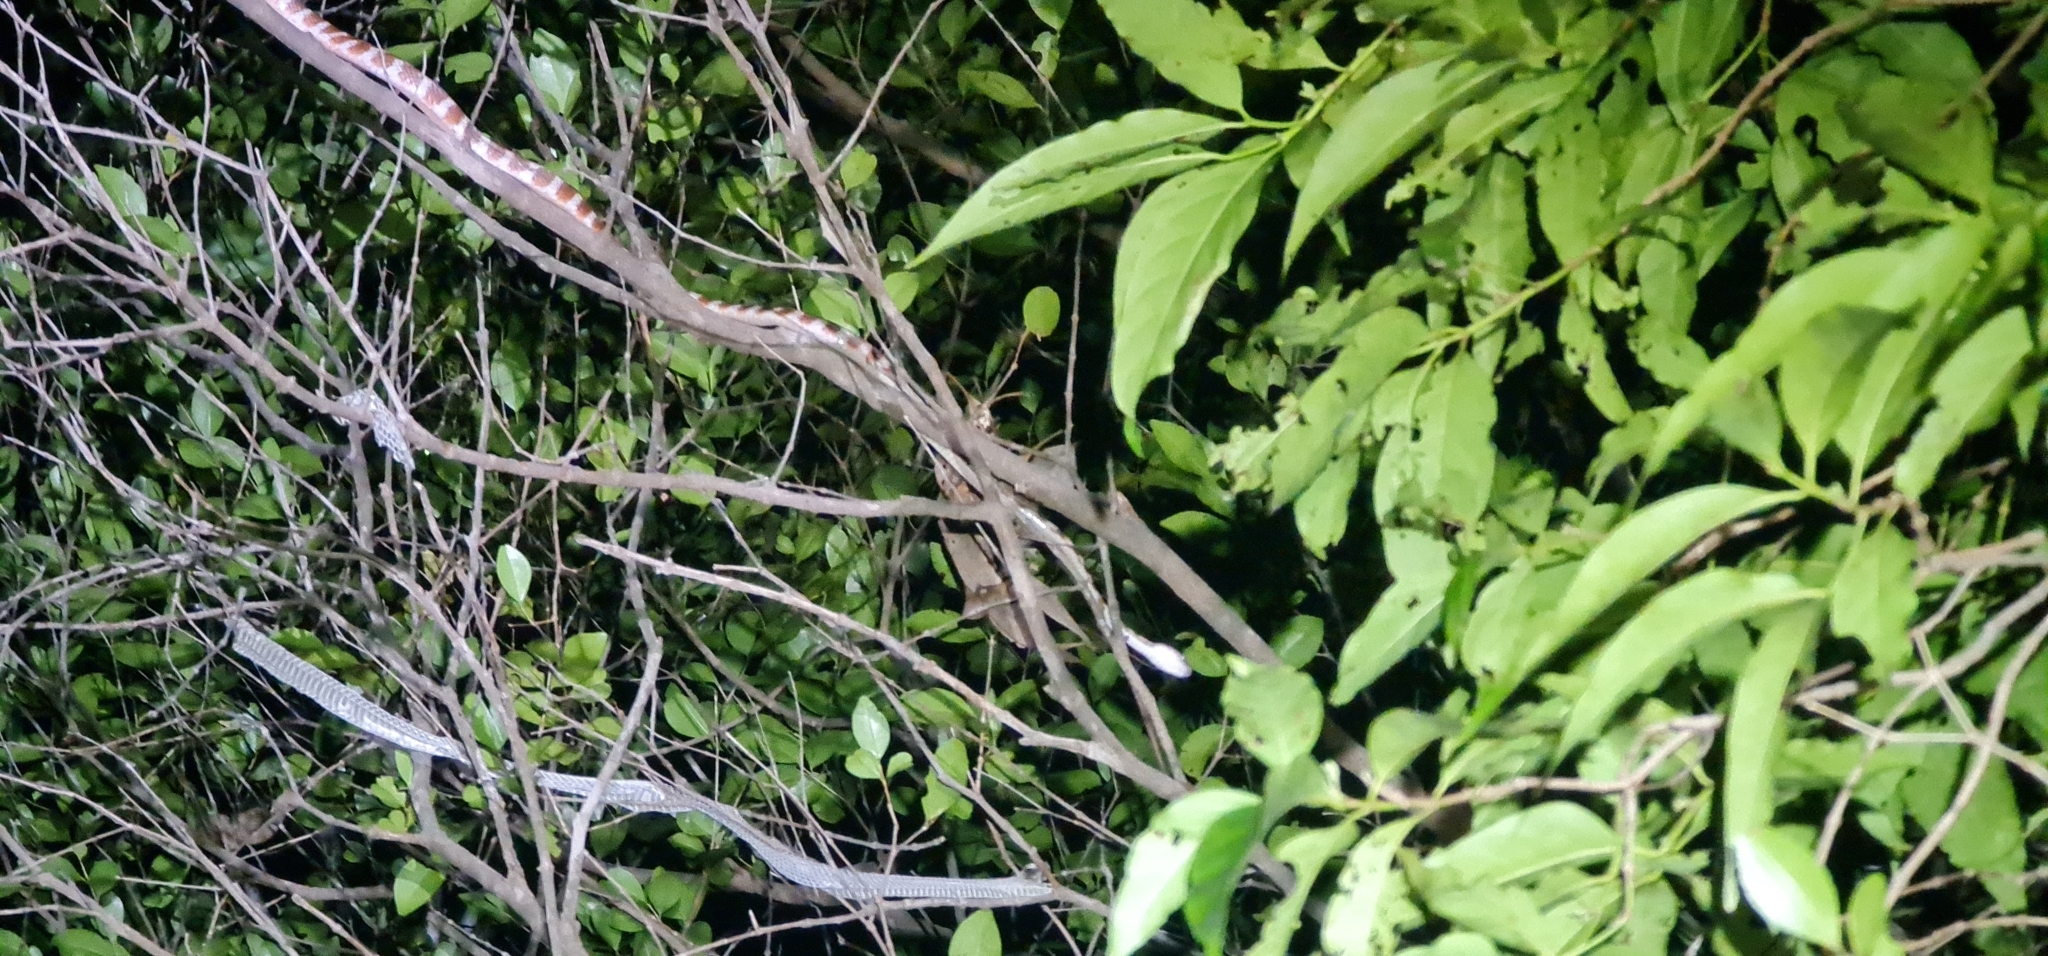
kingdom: Animalia
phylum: Chordata
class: Squamata
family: Colubridae
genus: Boiga
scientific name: Boiga irregularis
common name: Brown tree snake
